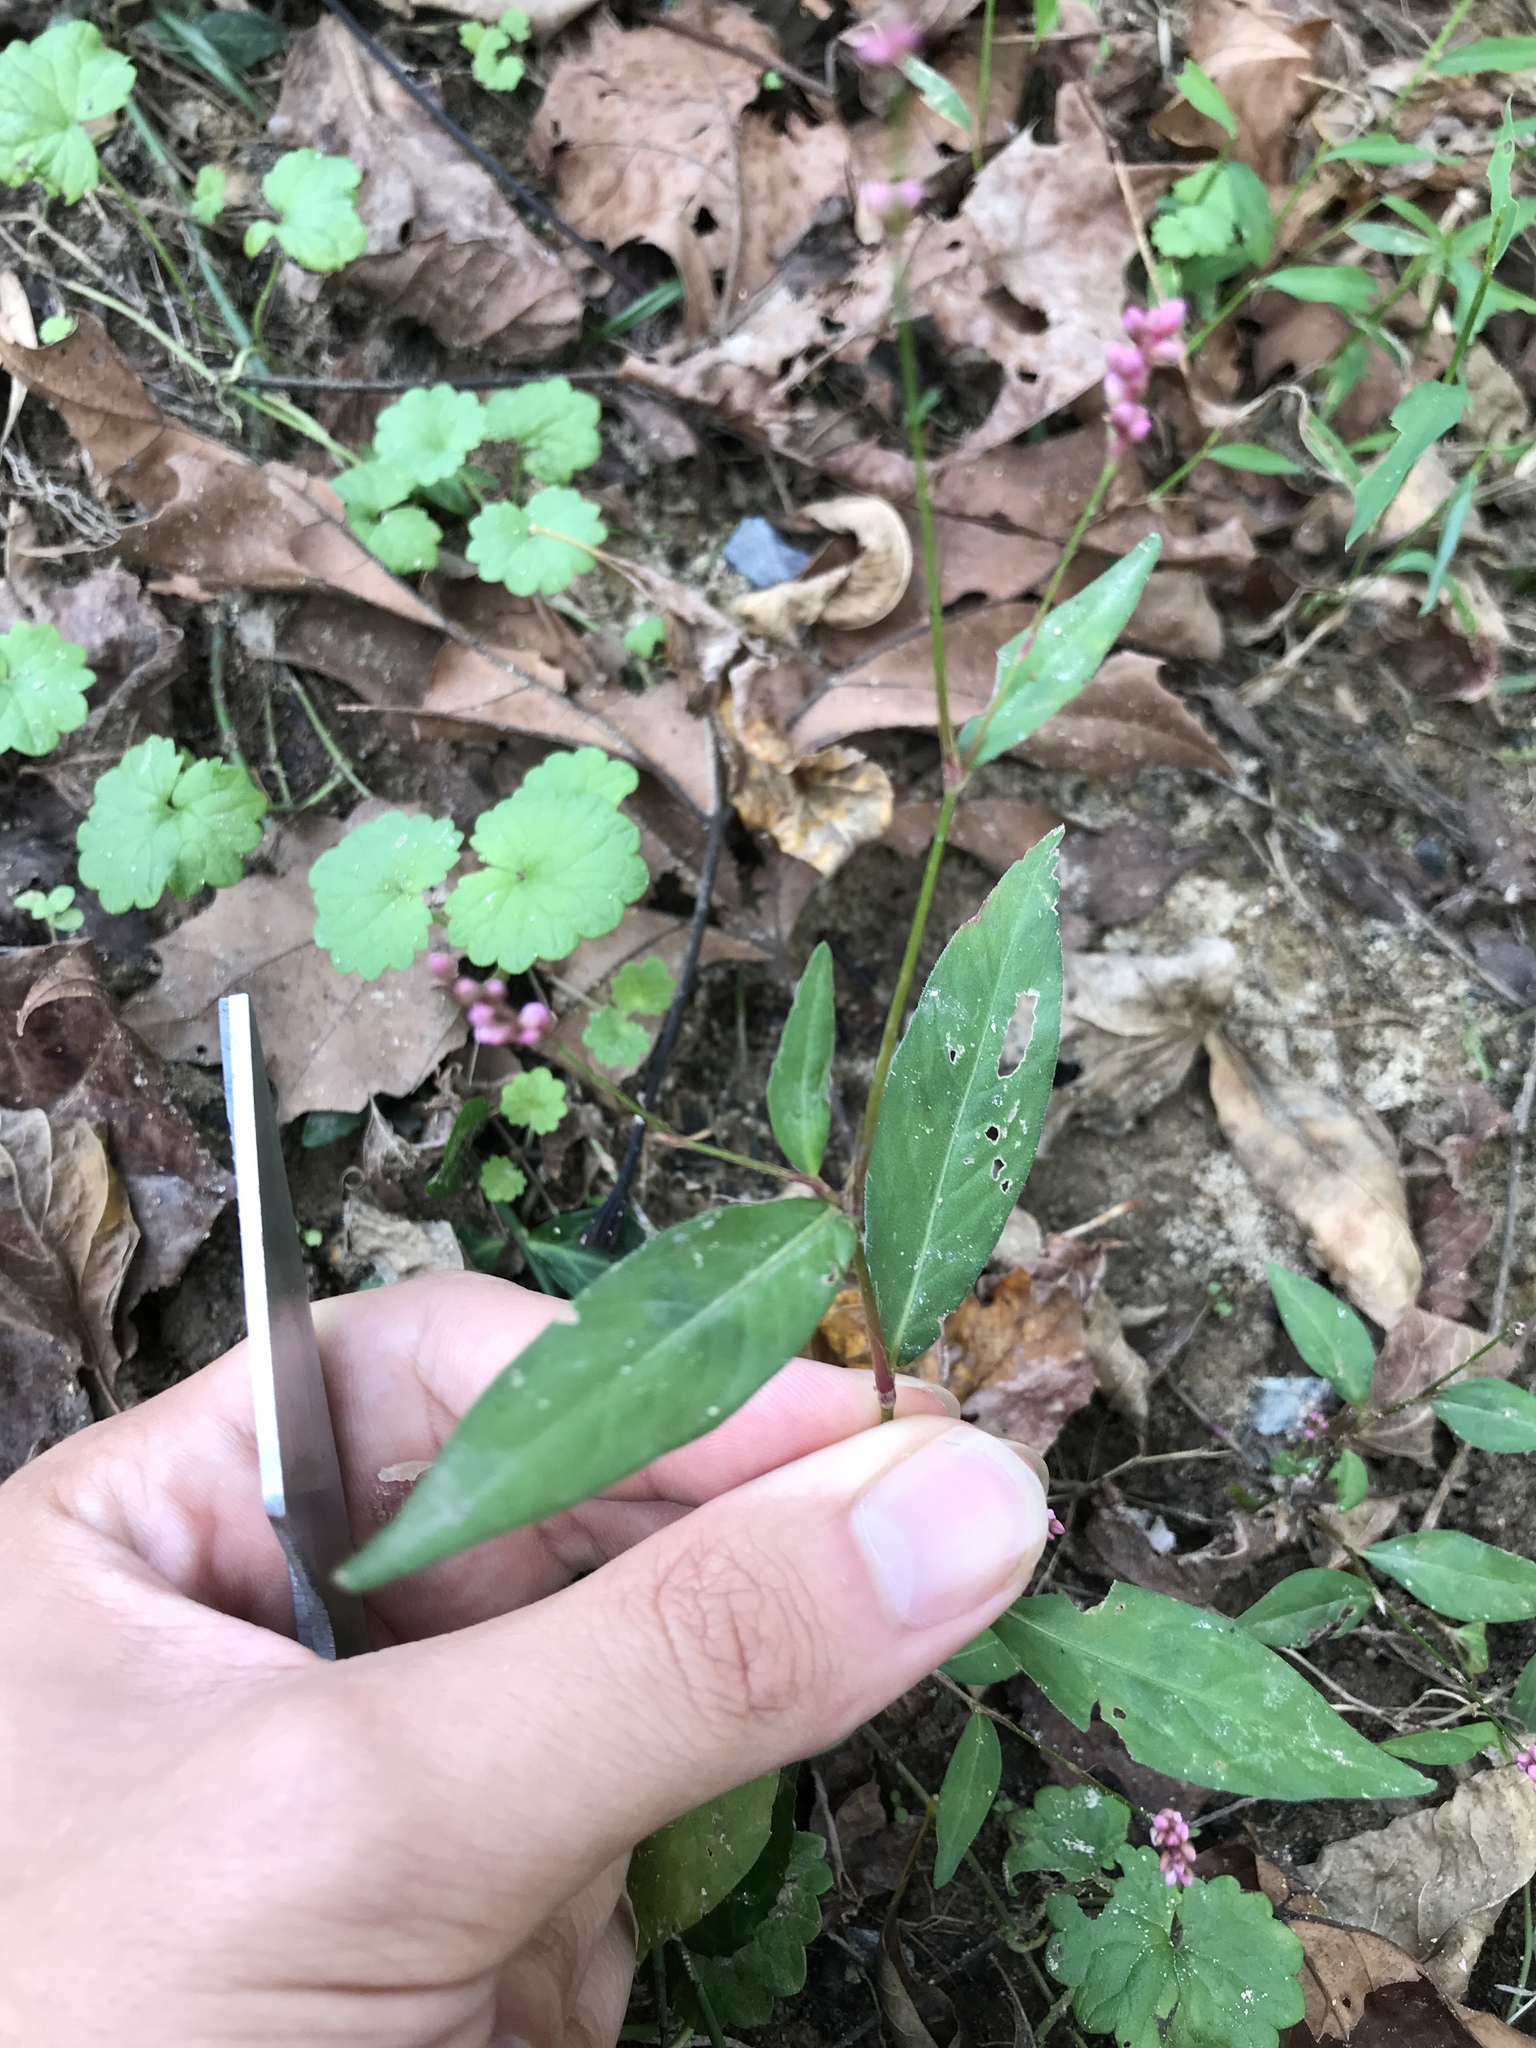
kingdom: Plantae
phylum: Tracheophyta
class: Magnoliopsida
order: Caryophyllales
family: Polygonaceae
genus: Persicaria
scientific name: Persicaria longiseta
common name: Bristly lady's-thumb
